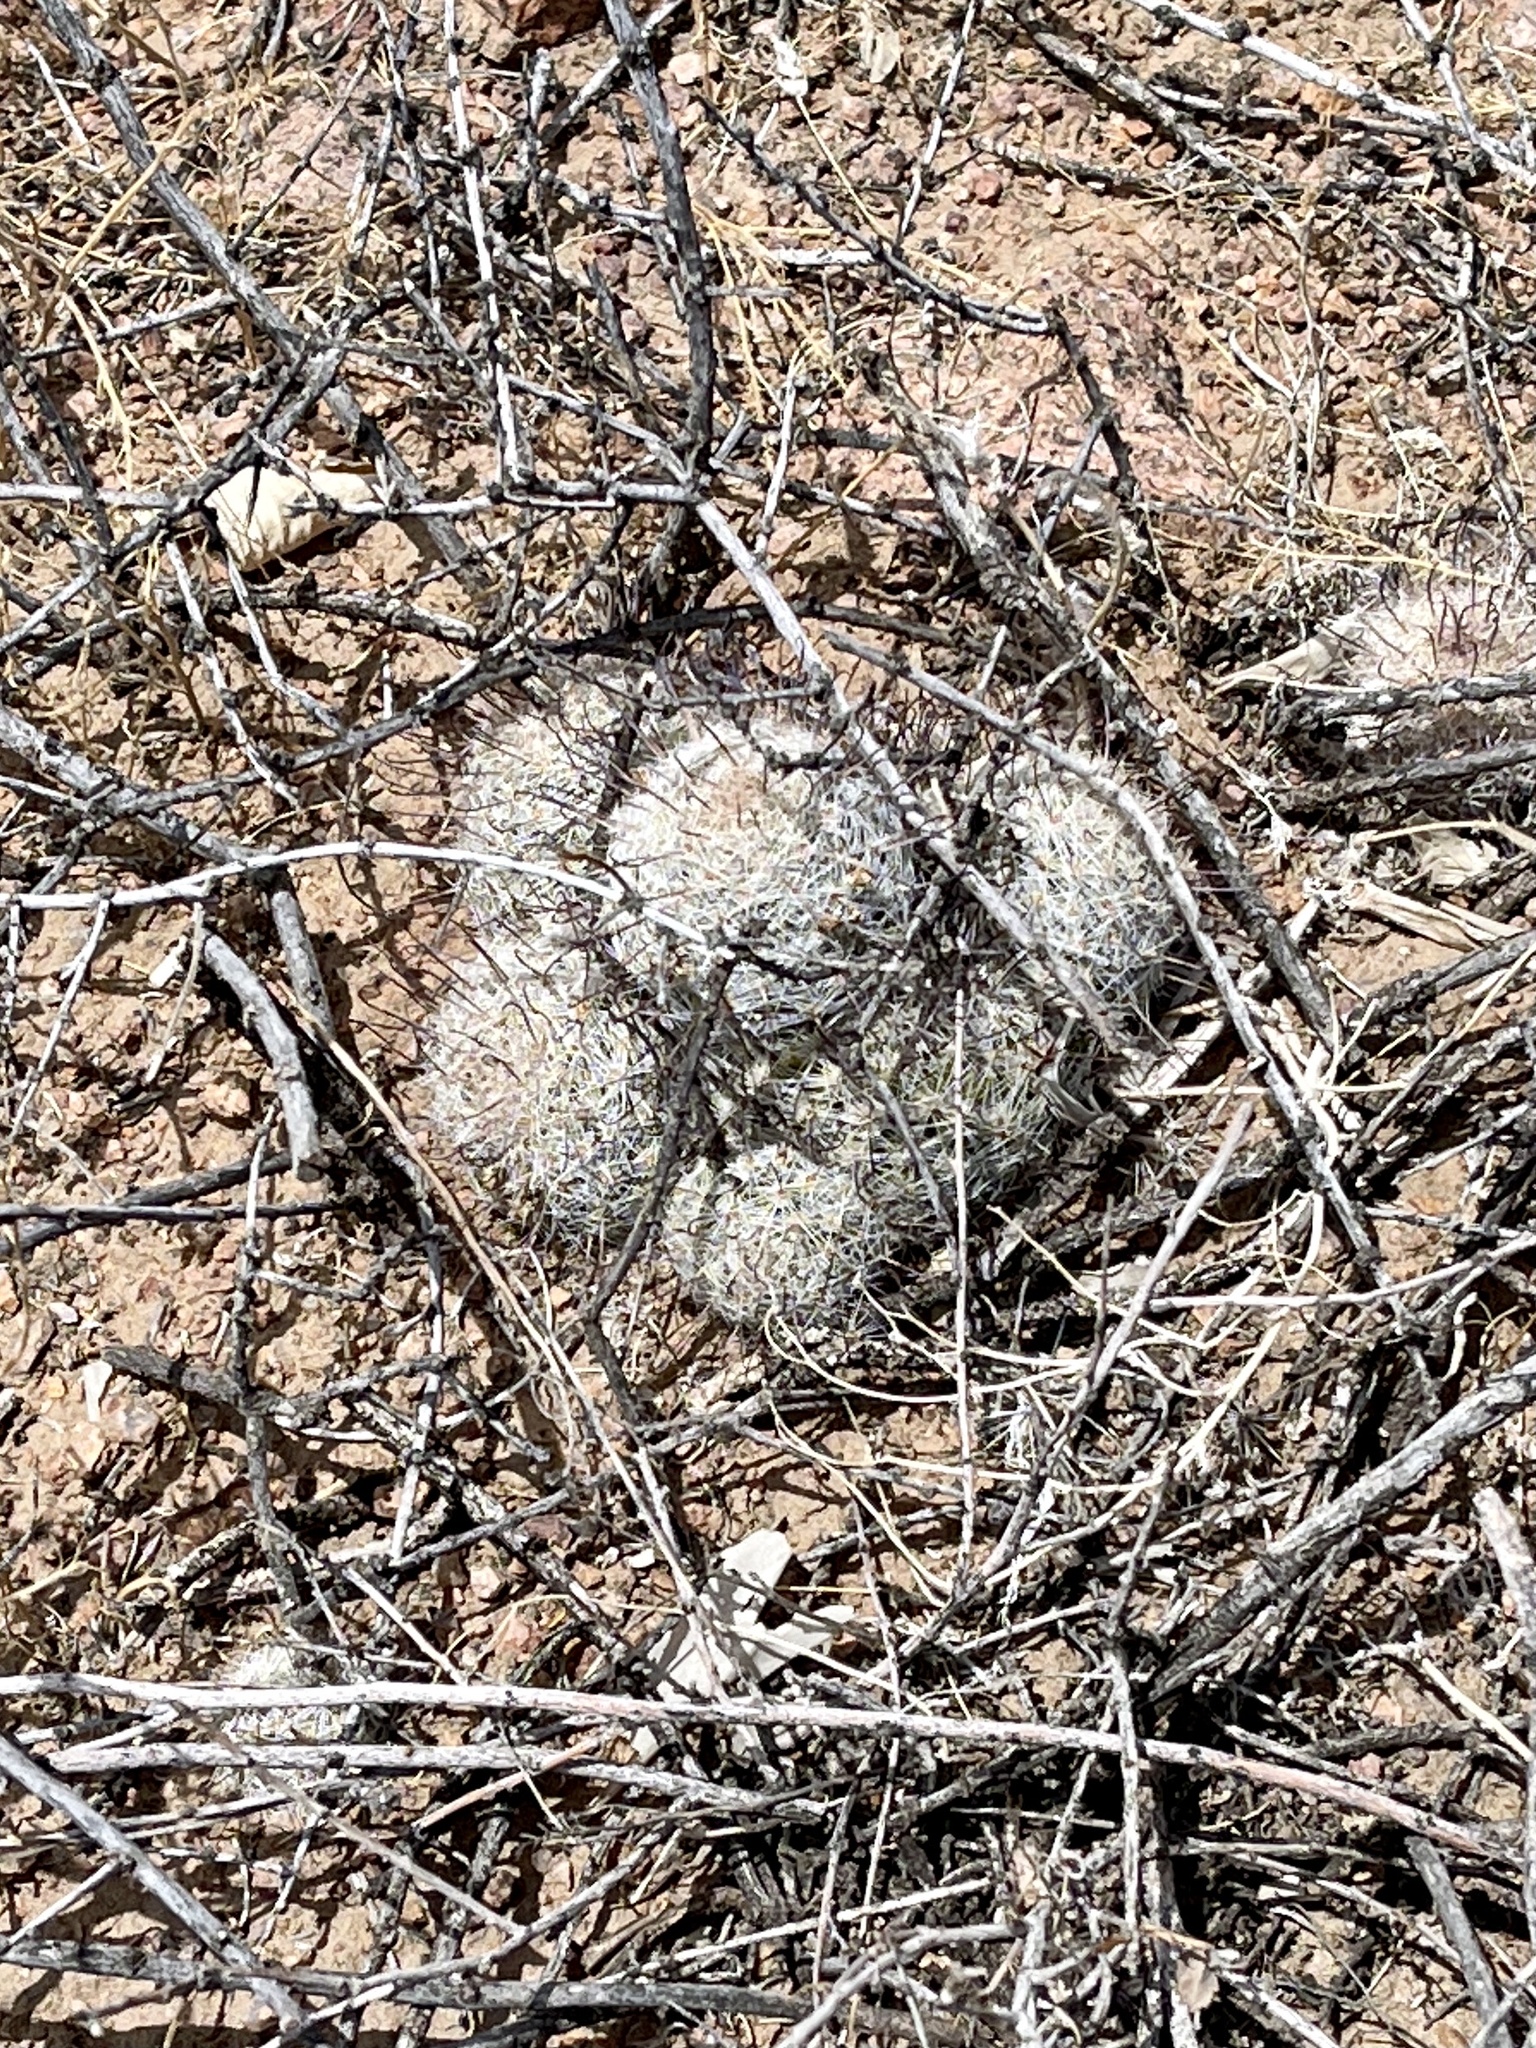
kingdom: Plantae
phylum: Tracheophyta
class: Magnoliopsida
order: Caryophyllales
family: Cactaceae
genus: Cochemiea
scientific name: Cochemiea grahamii
